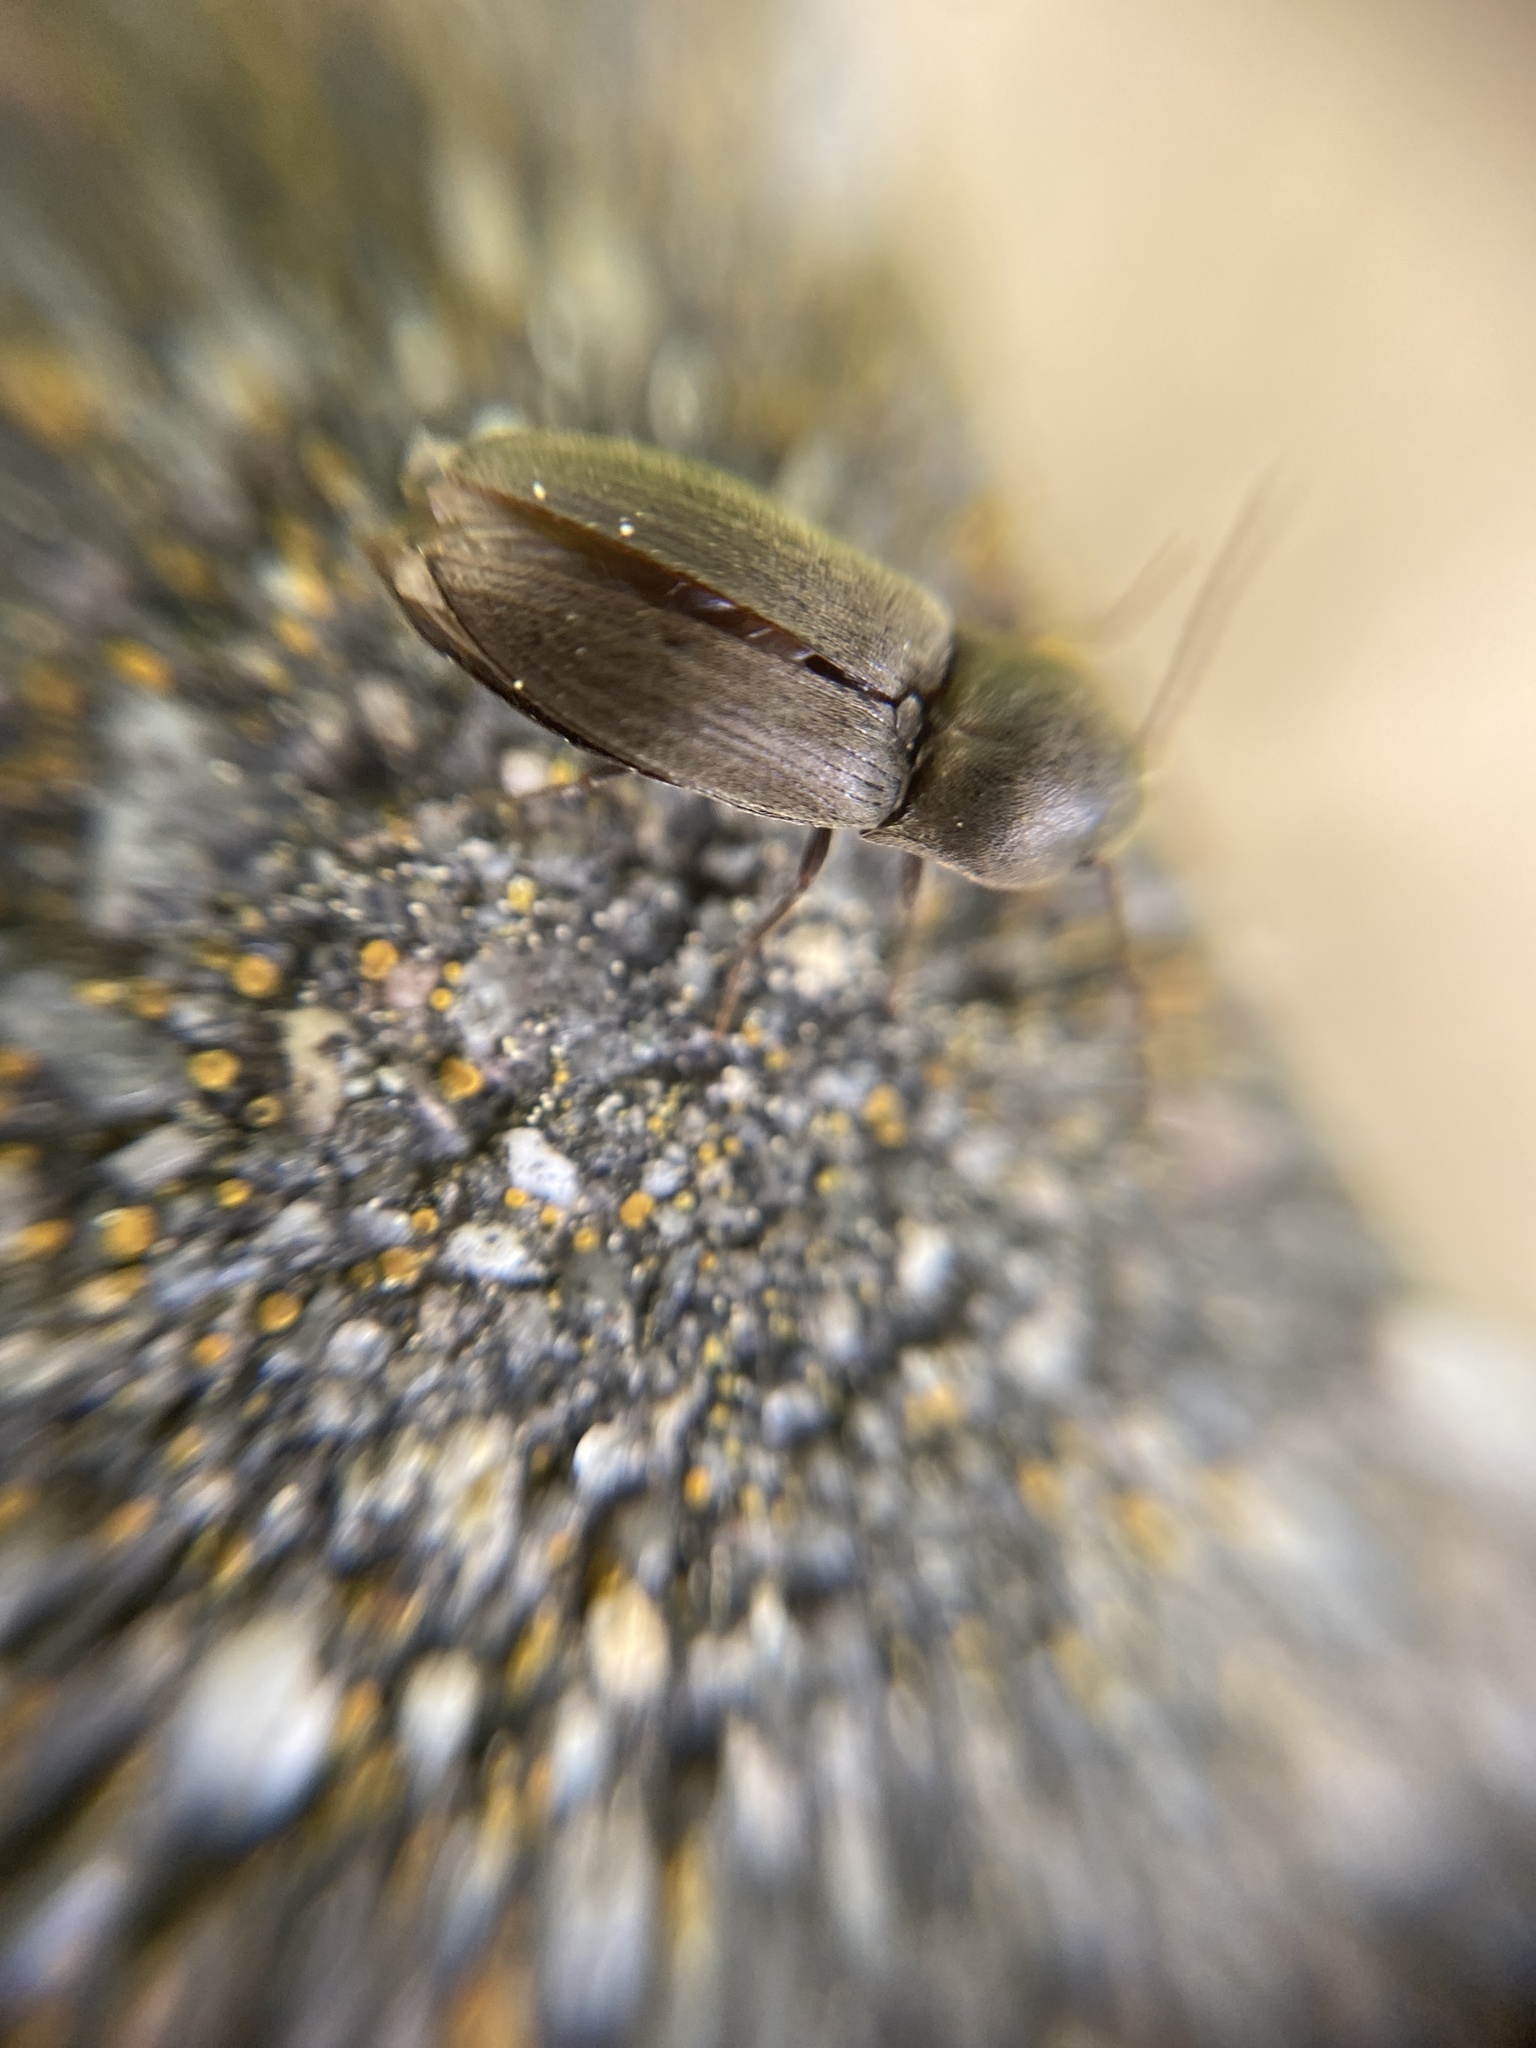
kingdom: Animalia
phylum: Arthropoda
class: Insecta
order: Coleoptera
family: Elateridae
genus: Agriotes
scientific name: Agriotes obscurus
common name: Dusky wireworm
